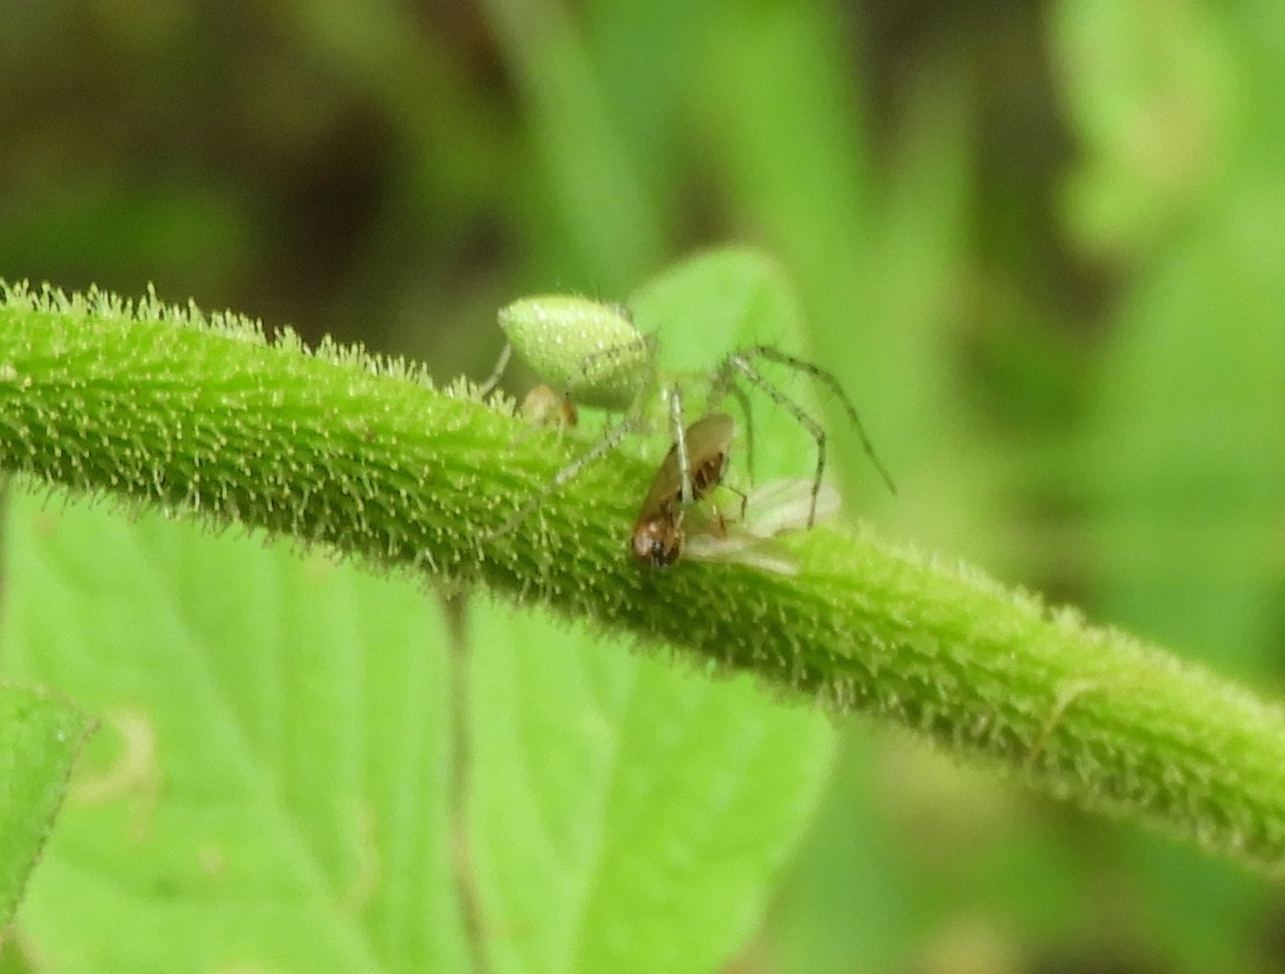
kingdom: Animalia
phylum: Arthropoda
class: Arachnida
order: Araneae
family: Oxyopidae
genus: Peucetia
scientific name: Peucetia
